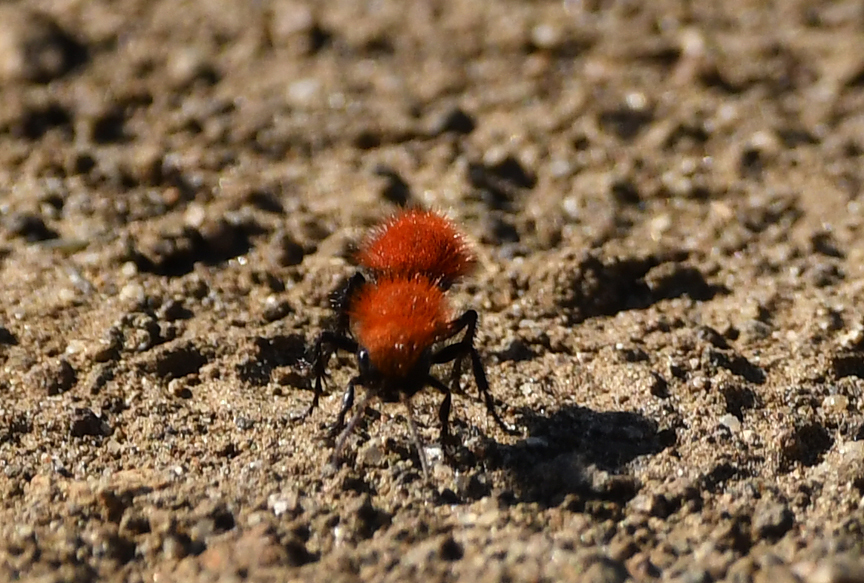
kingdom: Animalia
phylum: Arthropoda
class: Insecta
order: Hymenoptera
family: Mutillidae
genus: Dasymutilla
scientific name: Dasymutilla
